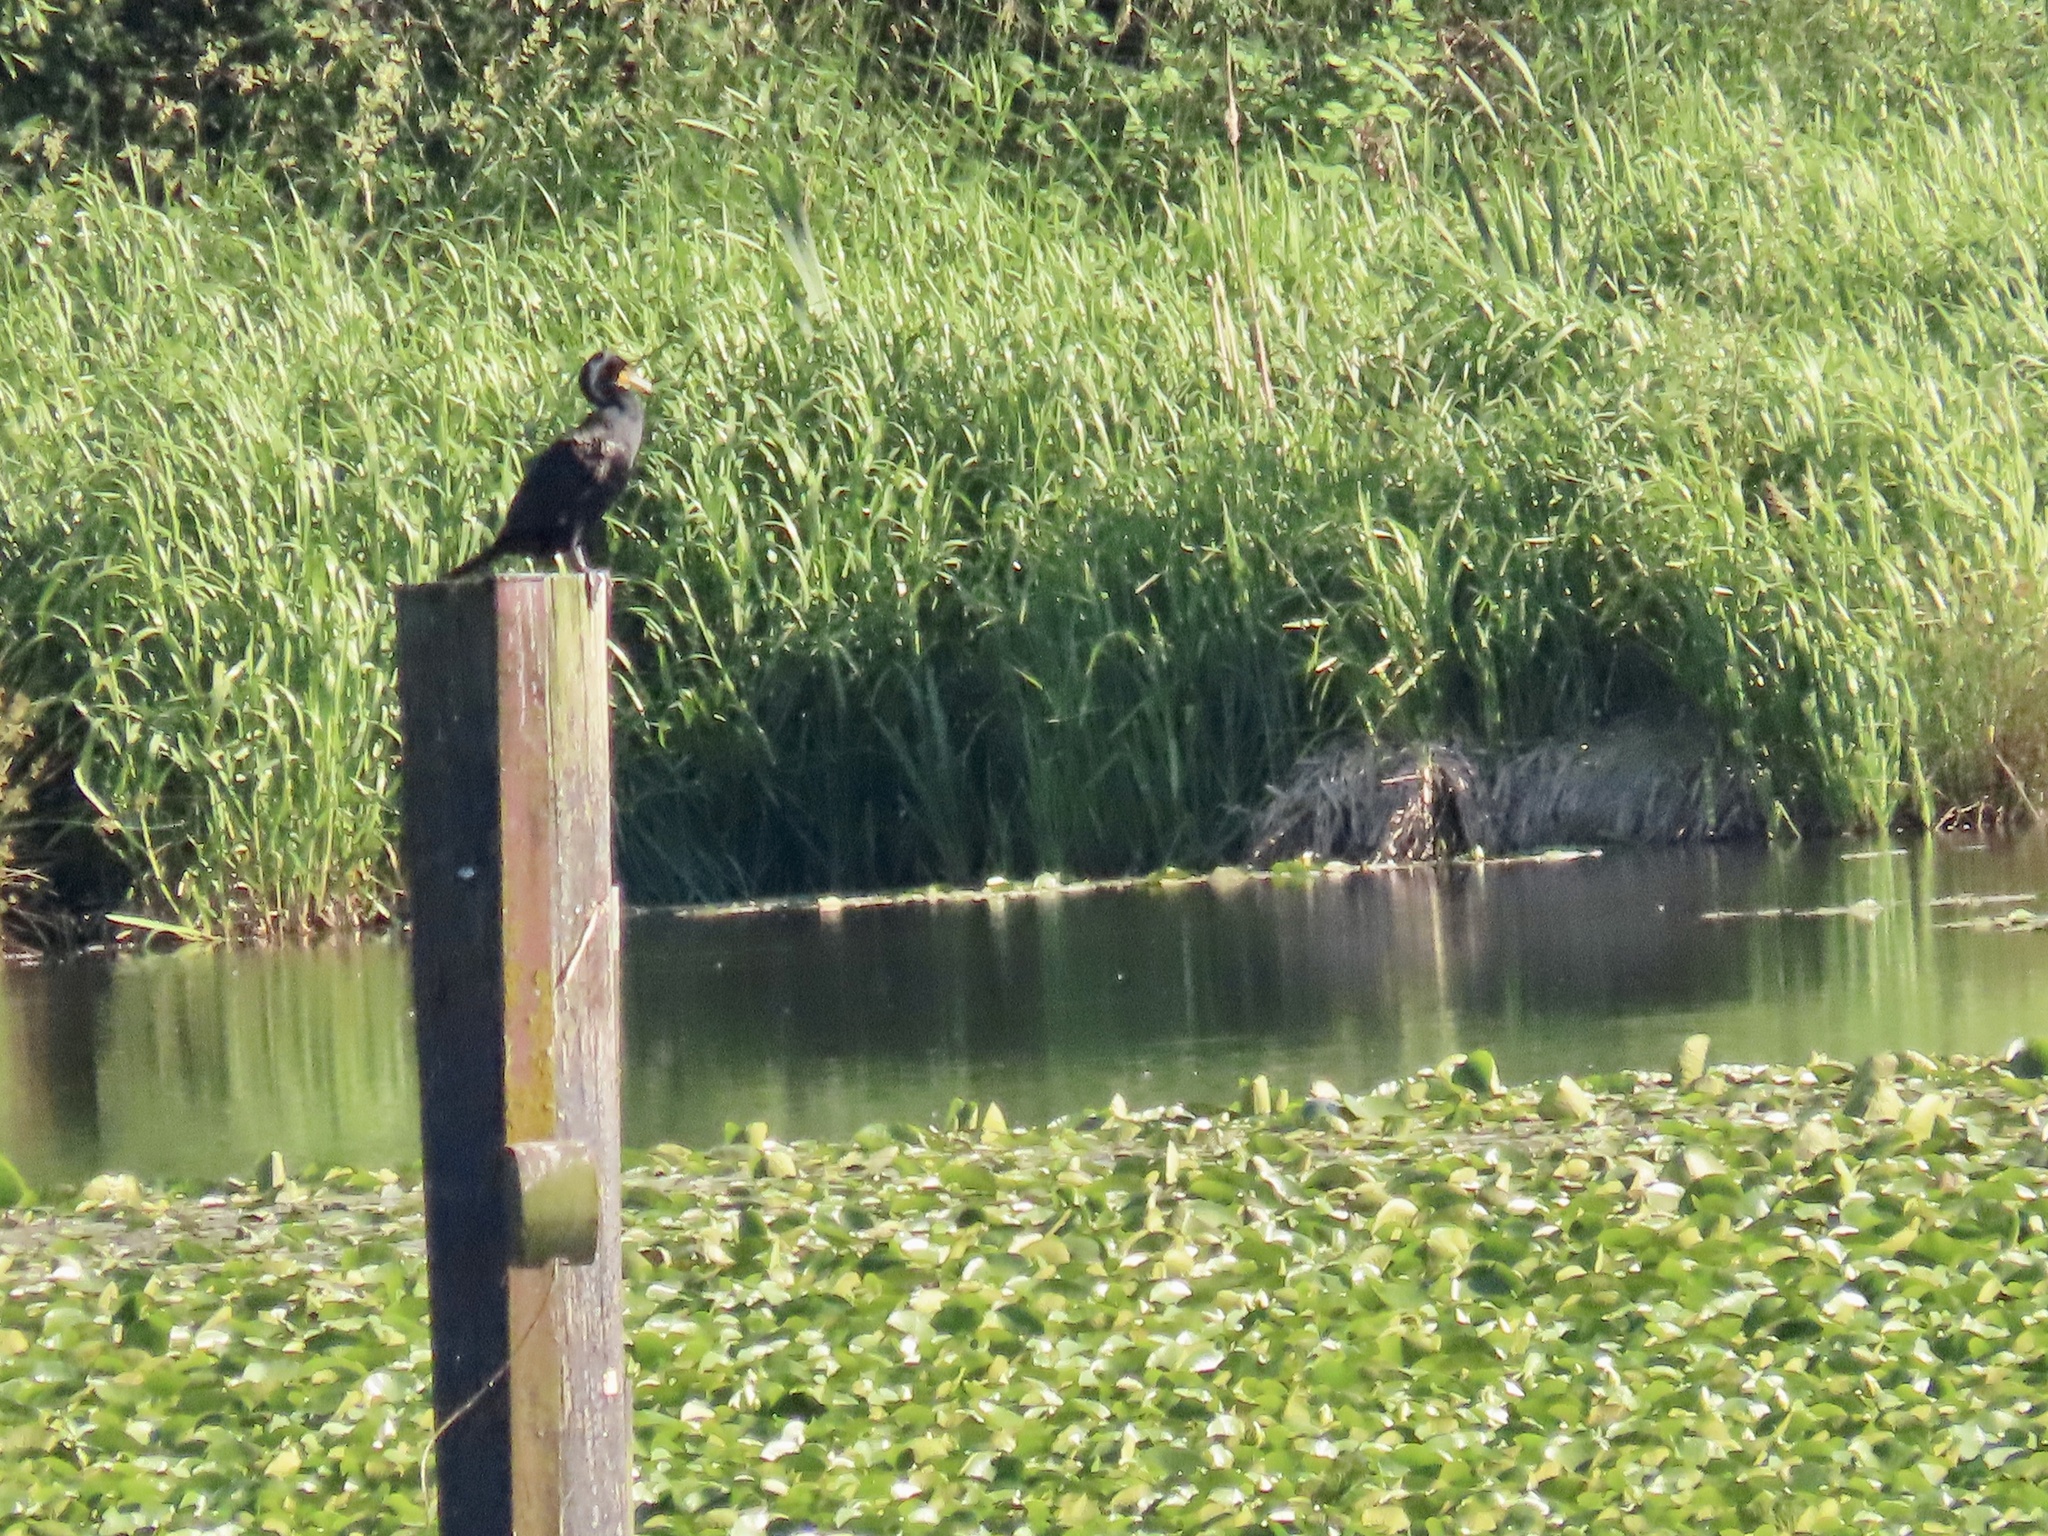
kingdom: Animalia
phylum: Chordata
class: Aves
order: Suliformes
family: Phalacrocoracidae
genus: Phalacrocorax
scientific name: Phalacrocorax auritus
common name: Double-crested cormorant
